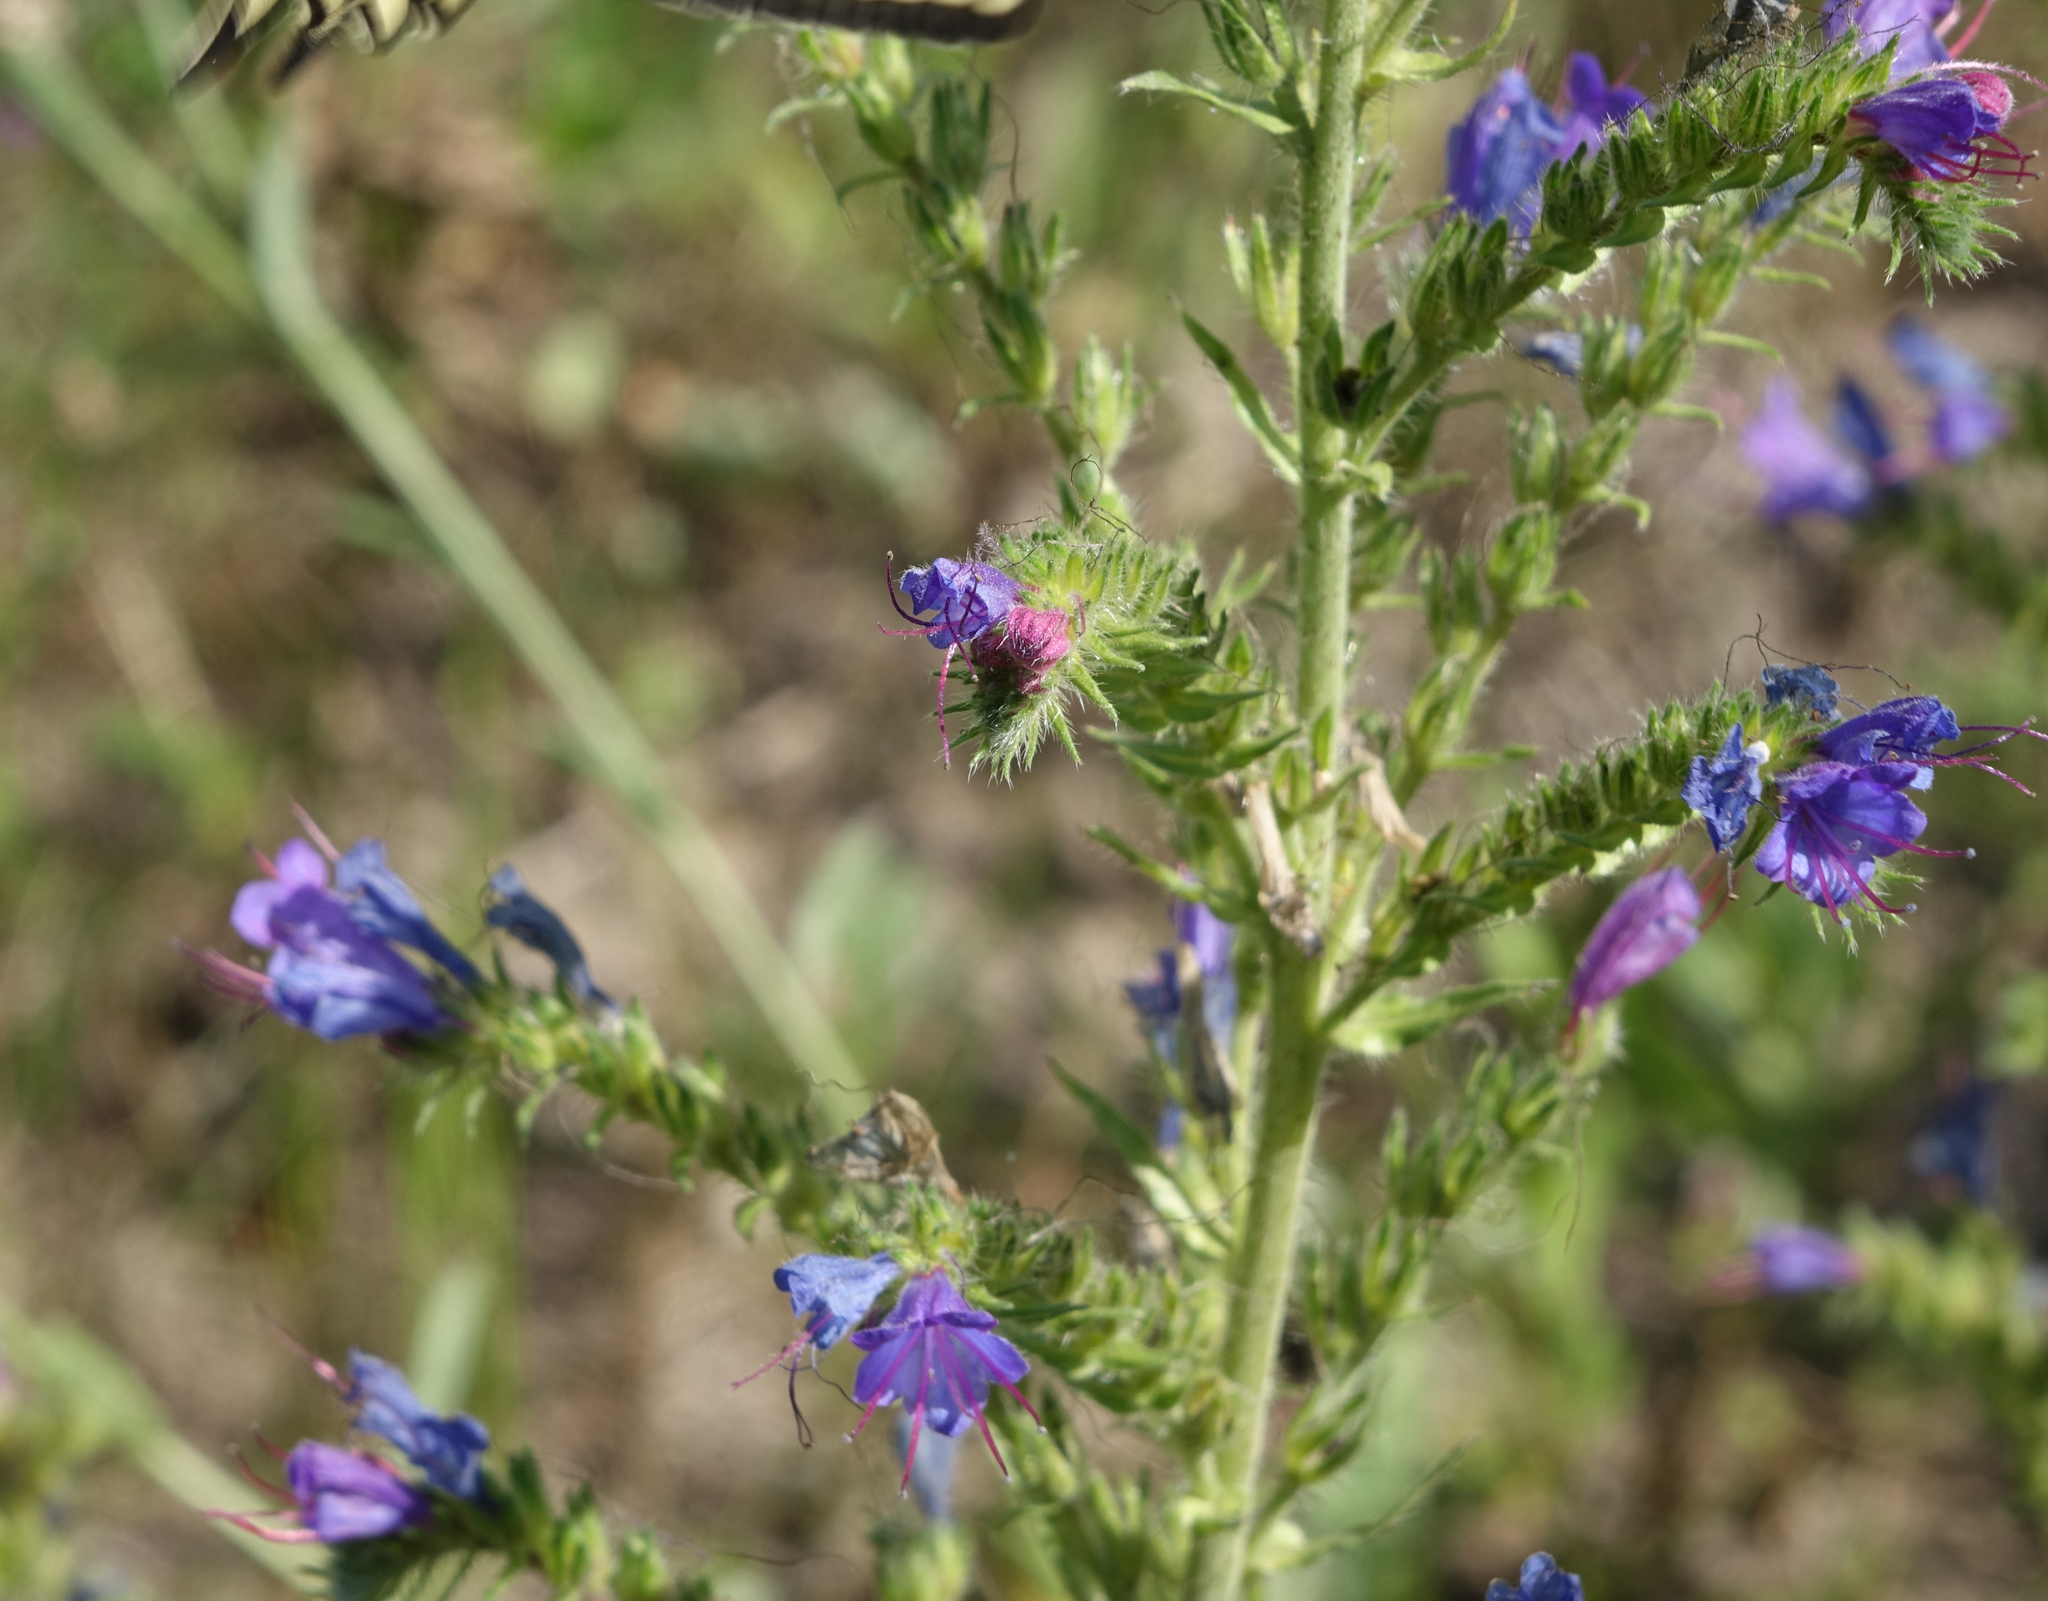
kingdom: Plantae
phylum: Tracheophyta
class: Magnoliopsida
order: Boraginales
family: Boraginaceae
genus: Echium
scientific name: Echium vulgare
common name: Common viper's bugloss
